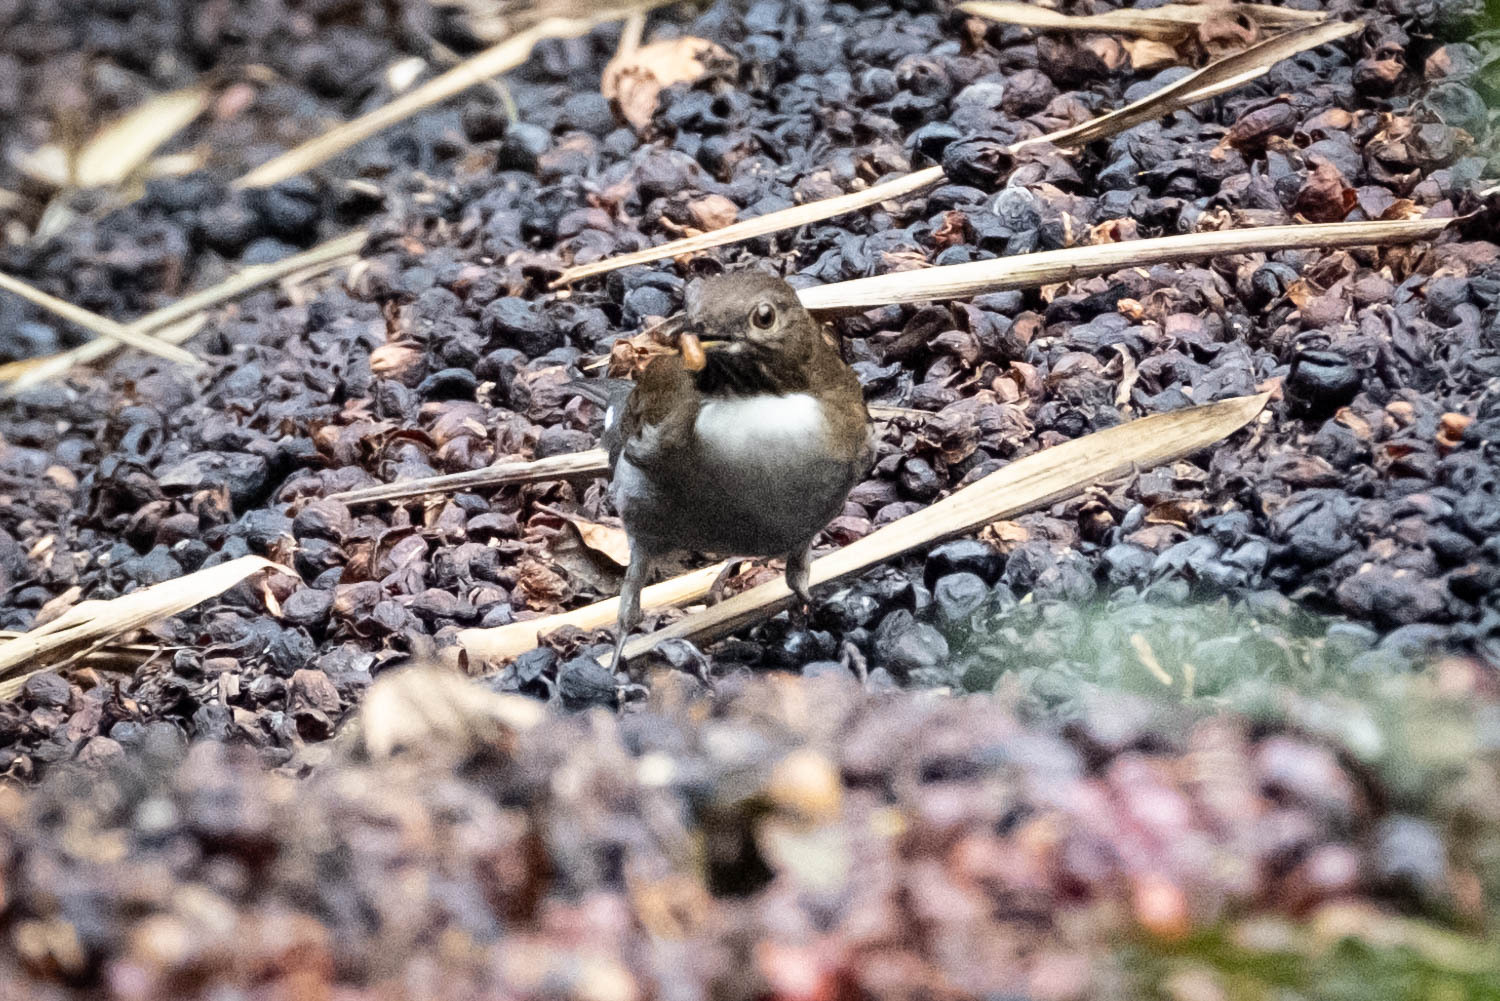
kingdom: Animalia
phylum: Chordata
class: Aves
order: Passeriformes
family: Turdidae
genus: Turdus
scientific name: Turdus albicollis
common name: White-necked thrush
